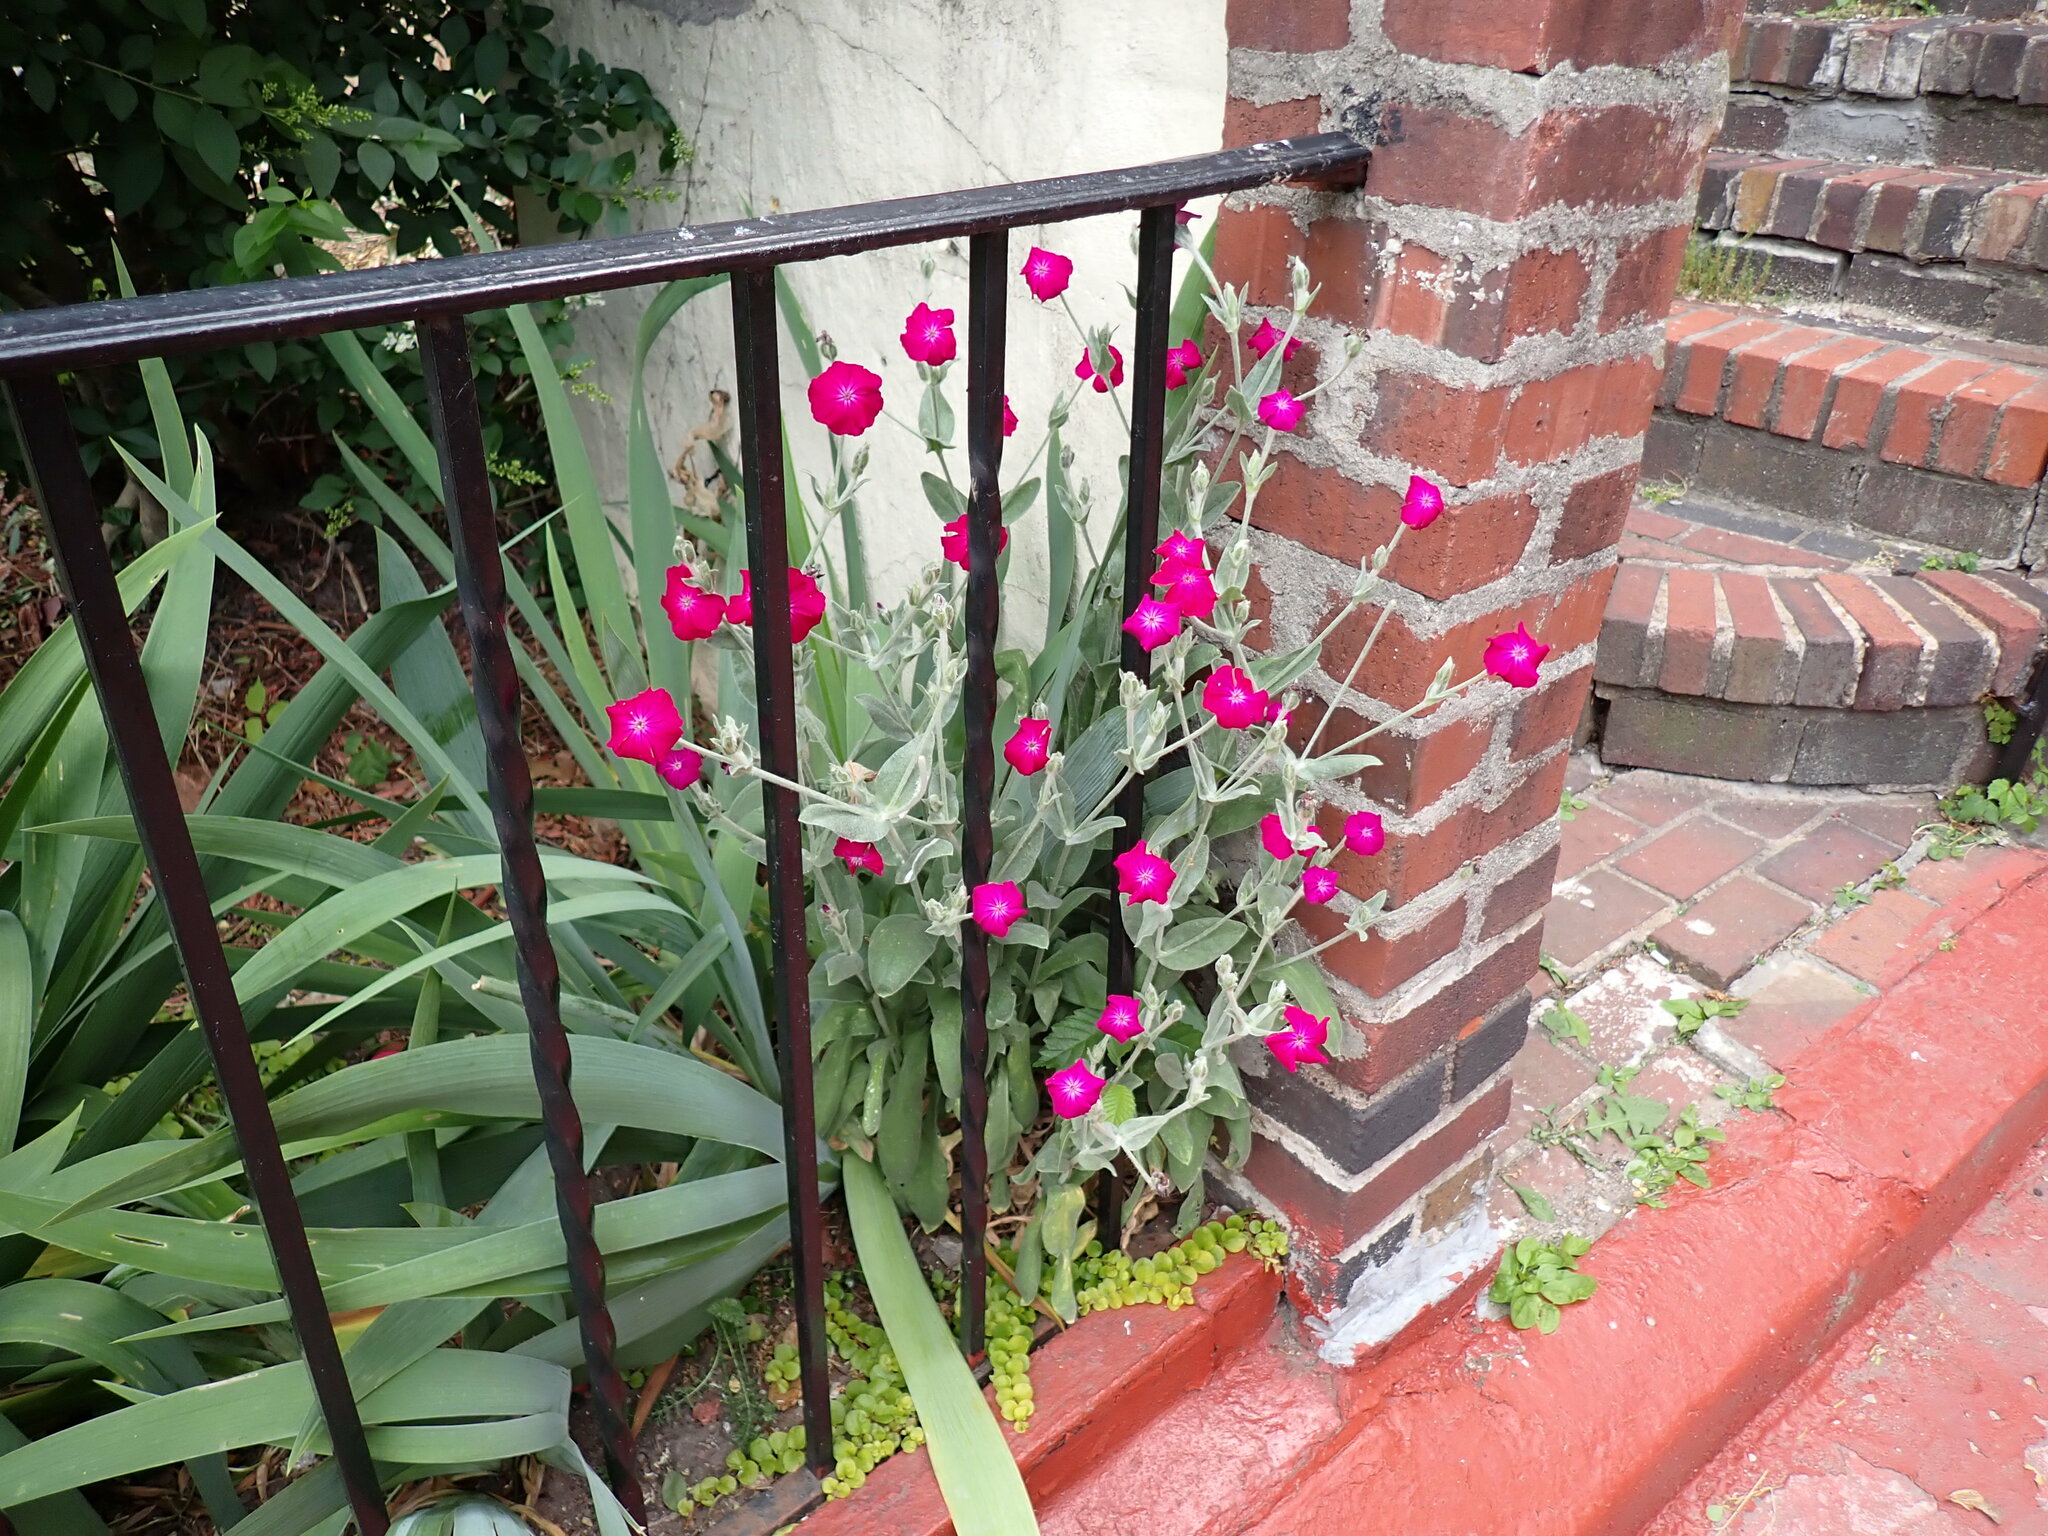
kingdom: Plantae
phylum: Tracheophyta
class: Magnoliopsida
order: Caryophyllales
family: Caryophyllaceae
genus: Silene
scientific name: Silene coronaria
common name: Rose campion
